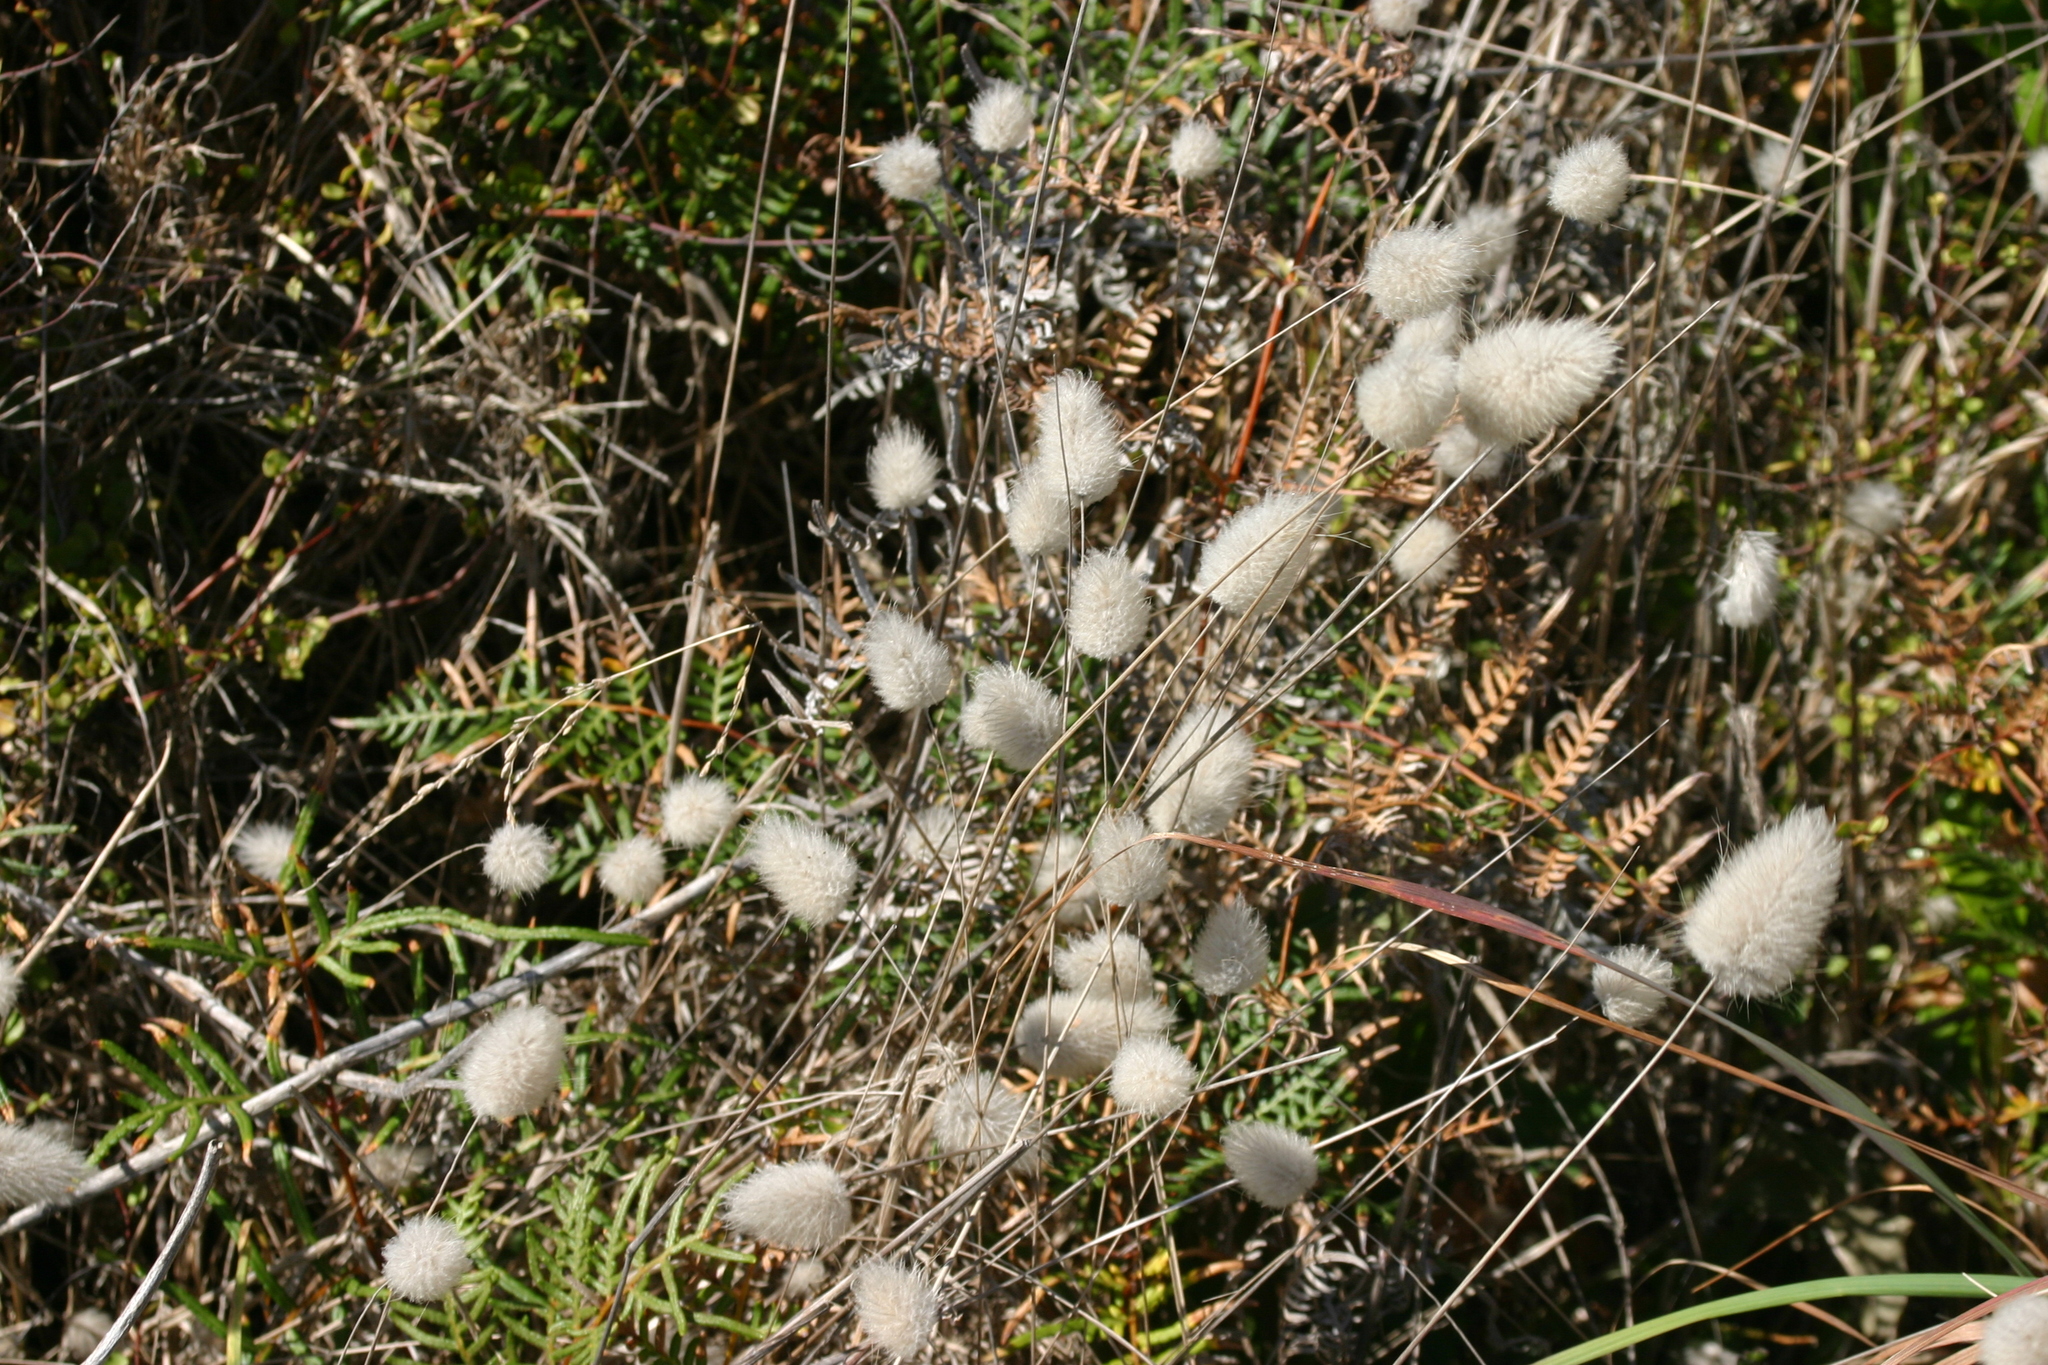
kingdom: Plantae
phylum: Tracheophyta
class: Liliopsida
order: Poales
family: Poaceae
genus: Lagurus
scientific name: Lagurus ovatus
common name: Hare's-tail
